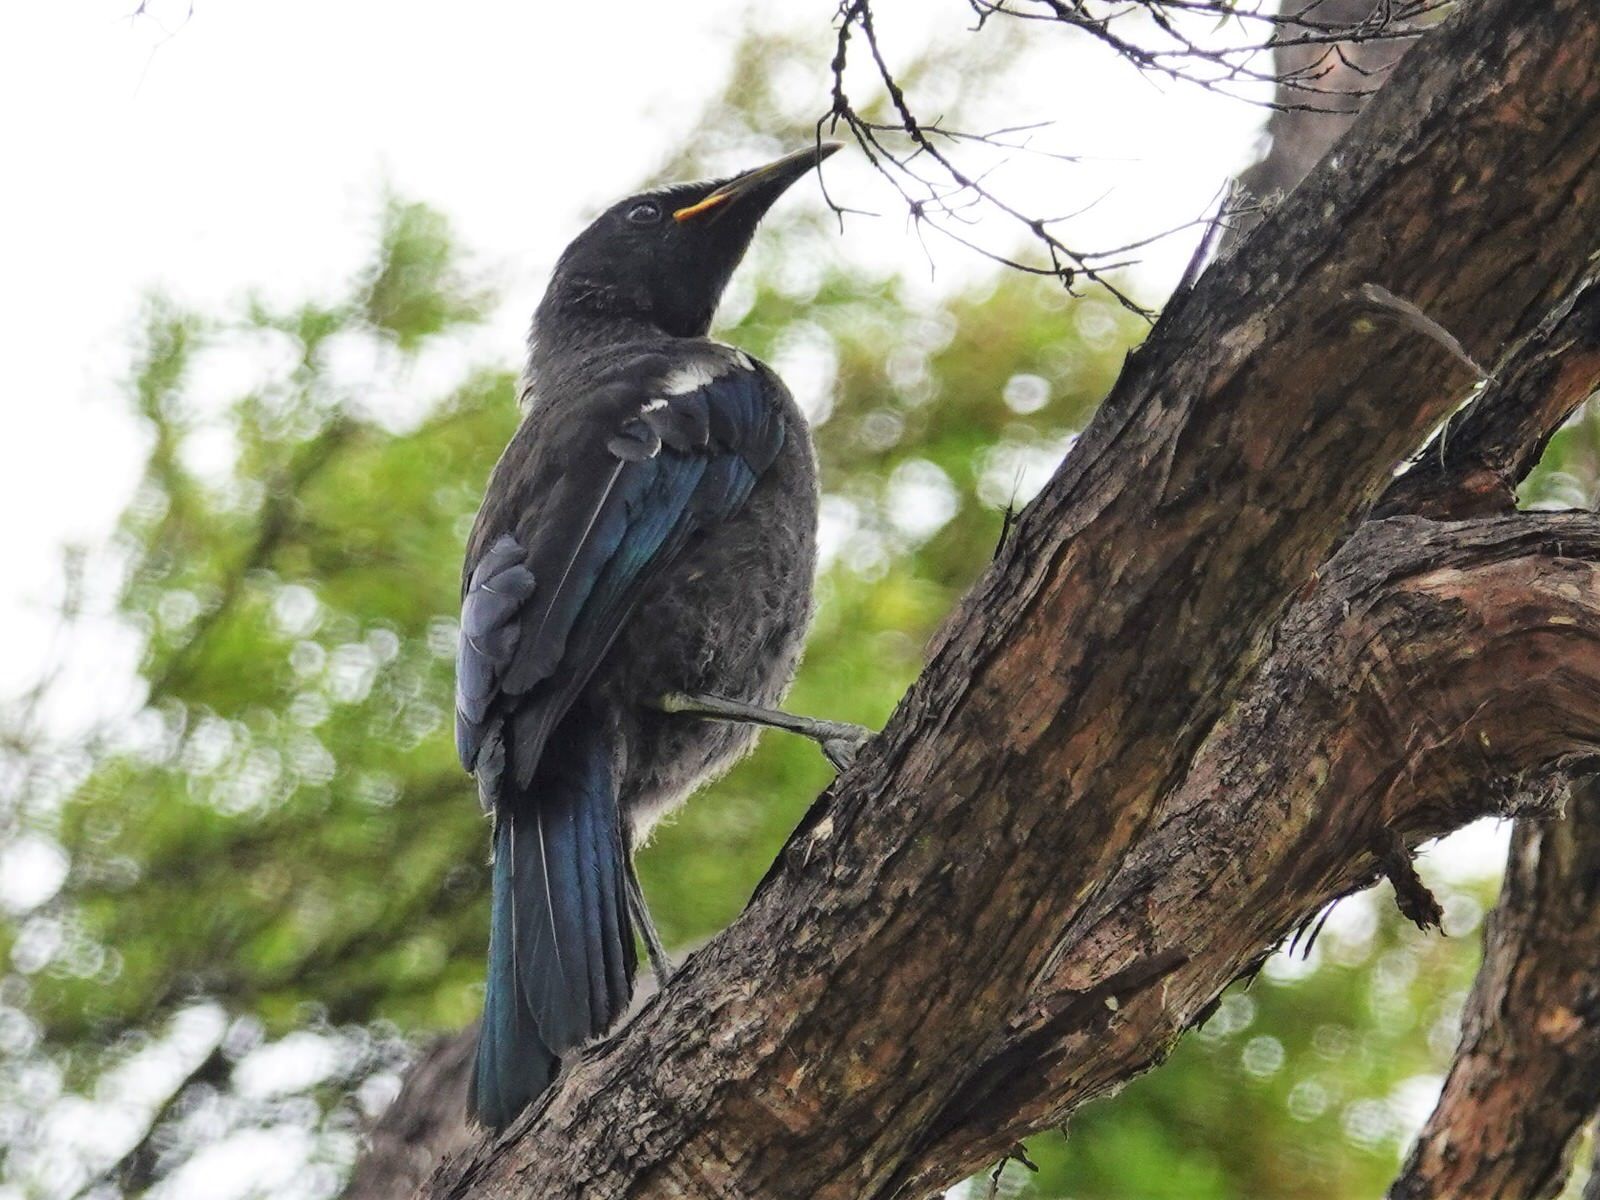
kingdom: Animalia
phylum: Chordata
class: Aves
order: Passeriformes
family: Meliphagidae
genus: Prosthemadera
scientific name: Prosthemadera novaeseelandiae
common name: Tui
